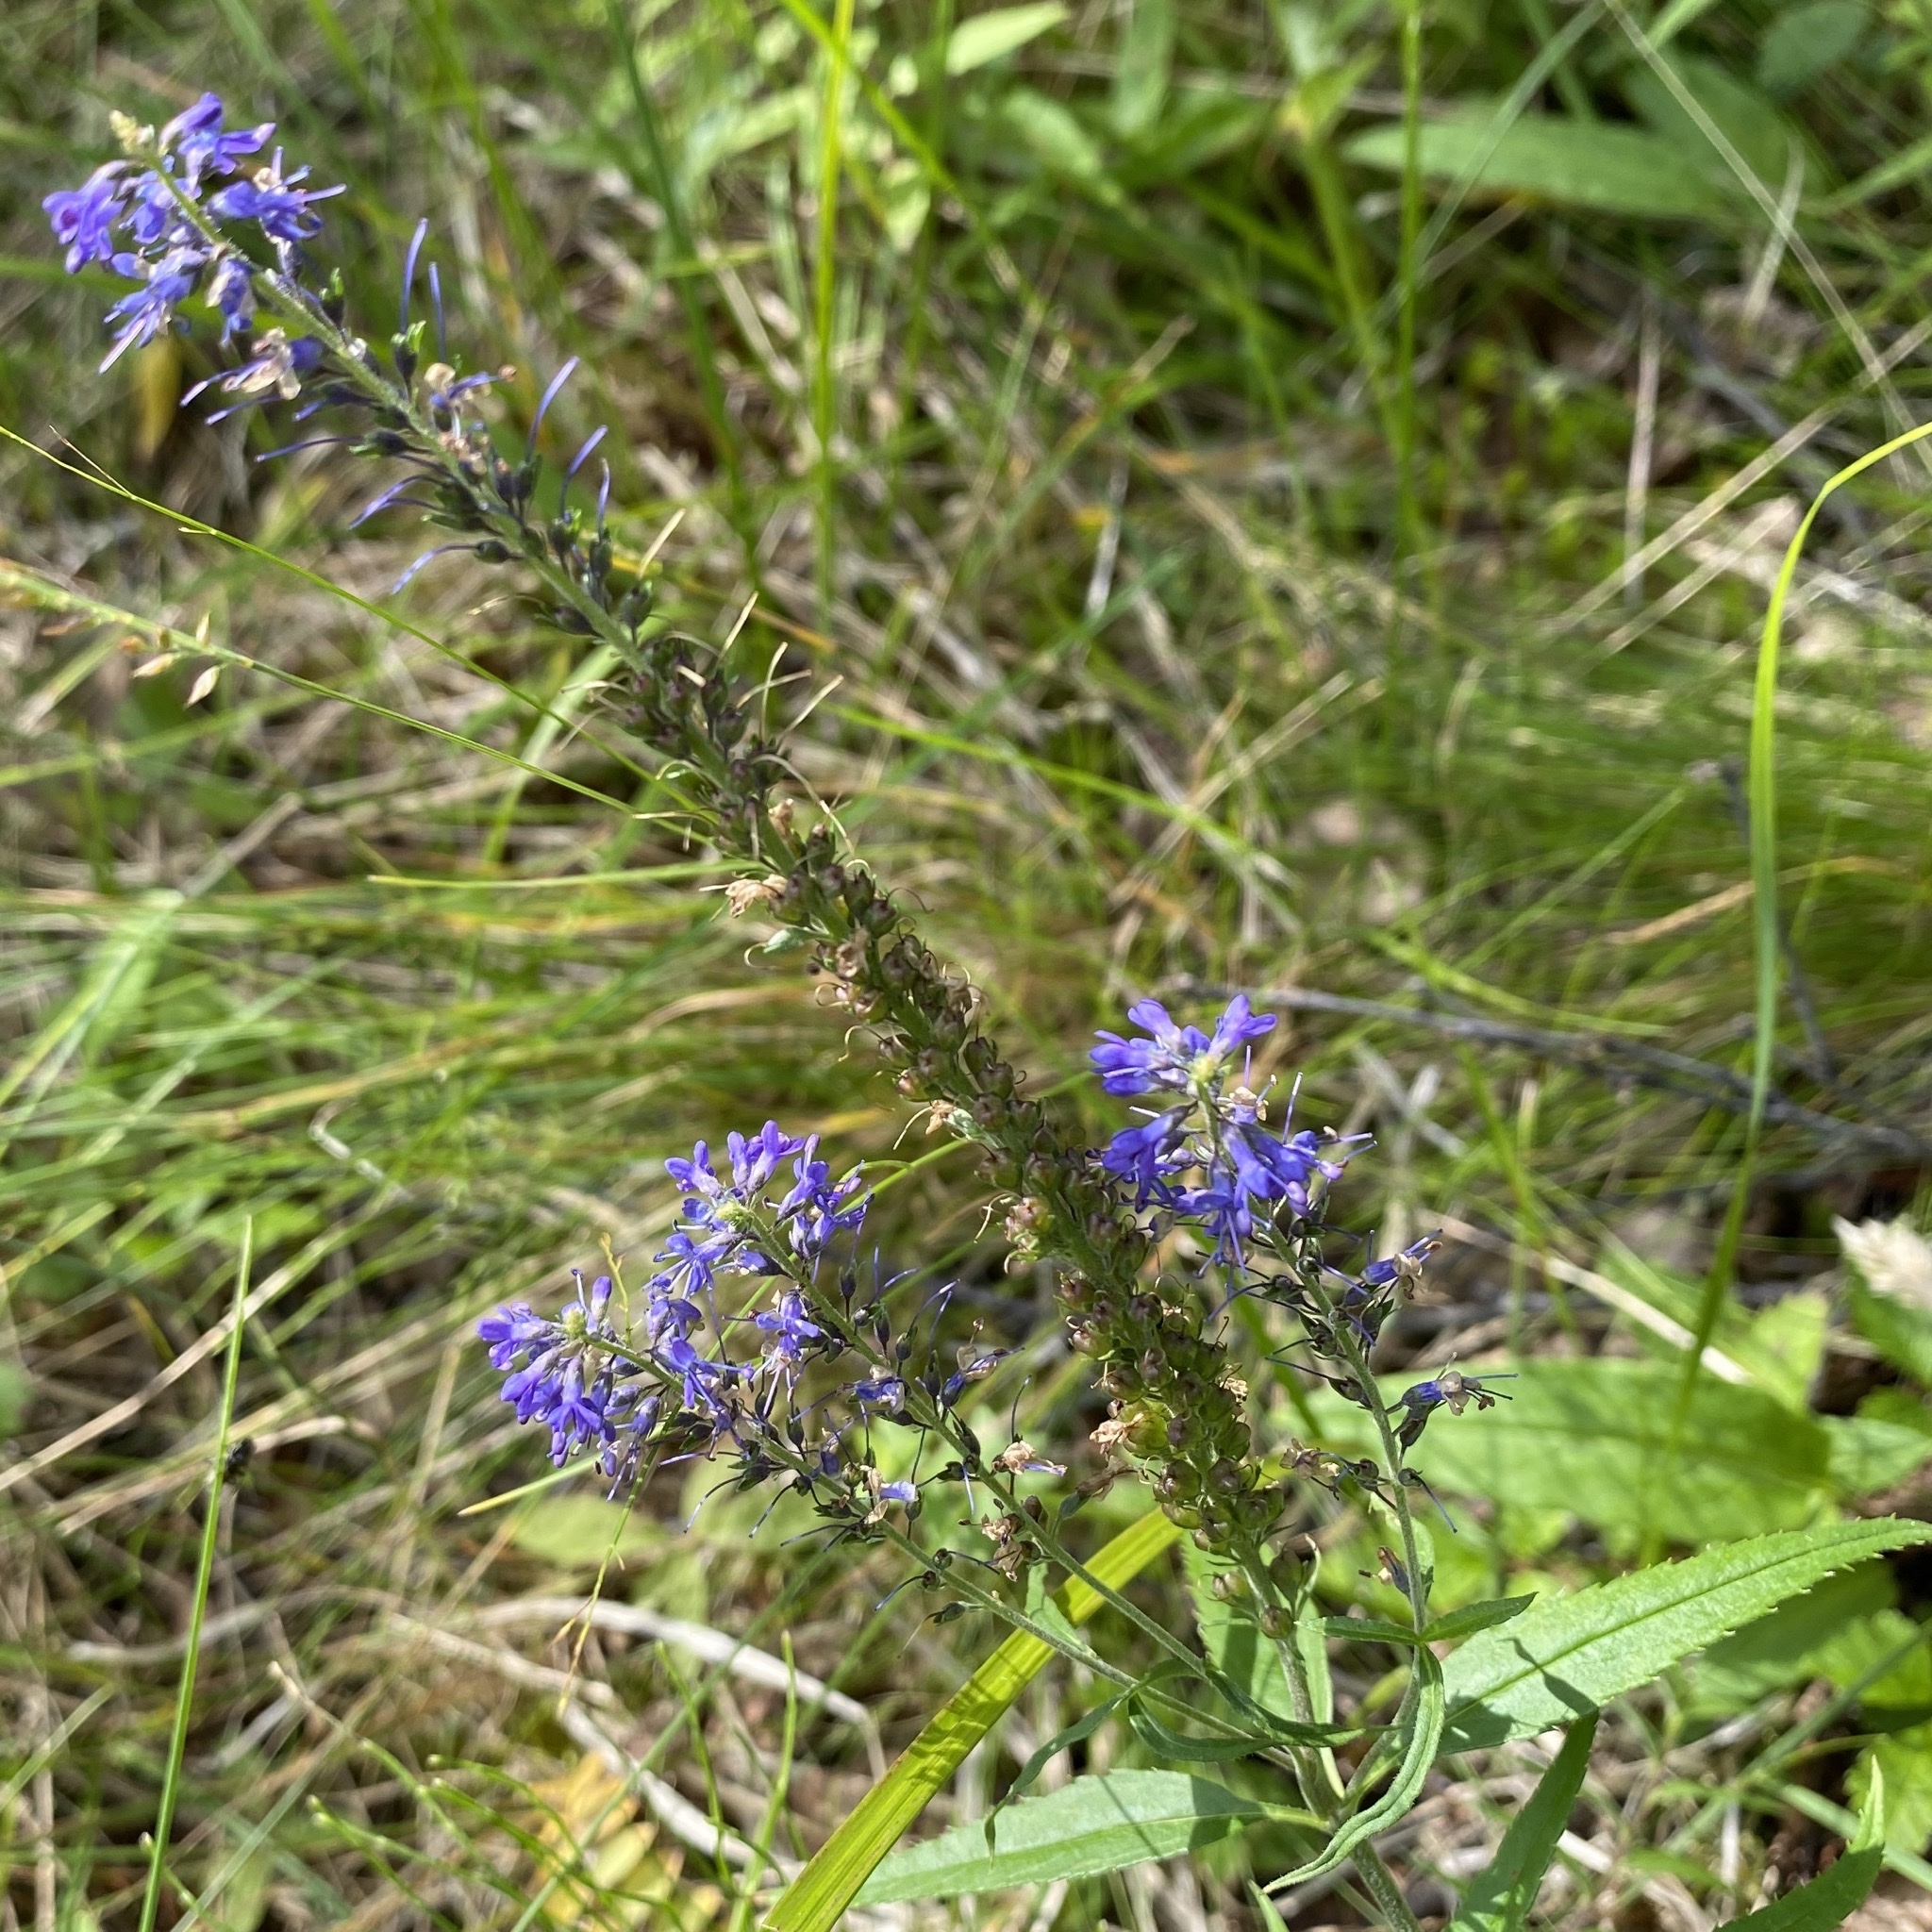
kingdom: Plantae
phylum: Tracheophyta
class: Magnoliopsida
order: Lamiales
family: Plantaginaceae
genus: Veronica
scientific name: Veronica longifolia
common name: Garden speedwell
